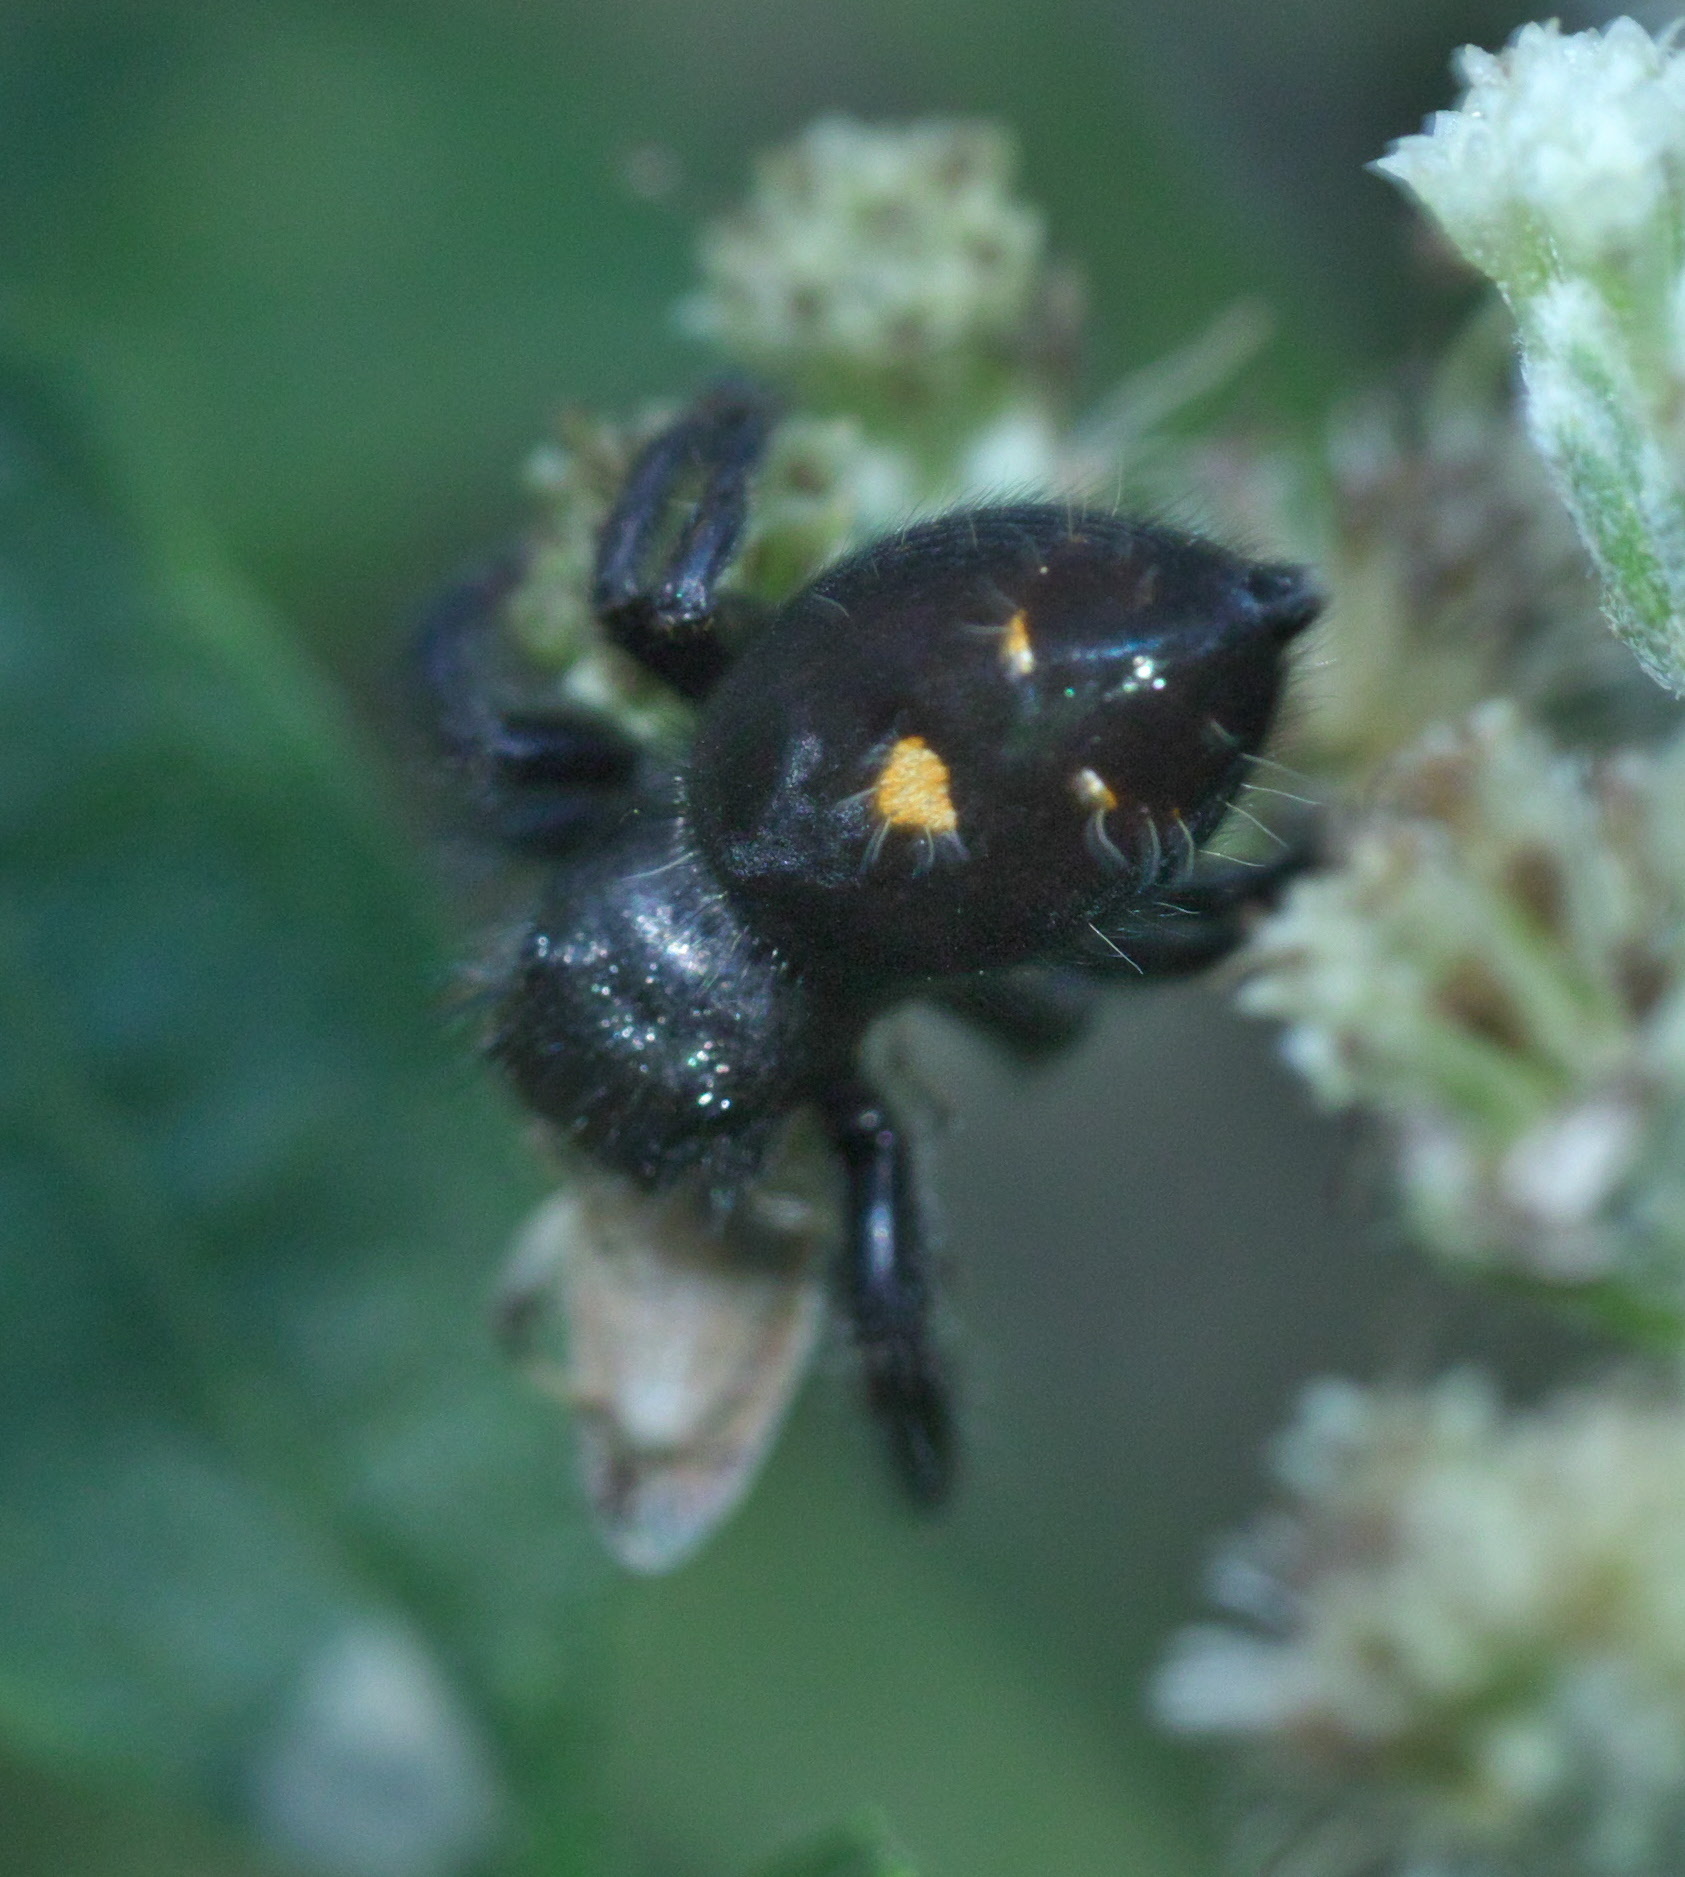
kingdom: Animalia
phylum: Arthropoda
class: Arachnida
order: Araneae
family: Salticidae
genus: Phidippus
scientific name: Phidippus audax
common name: Bold jumper
